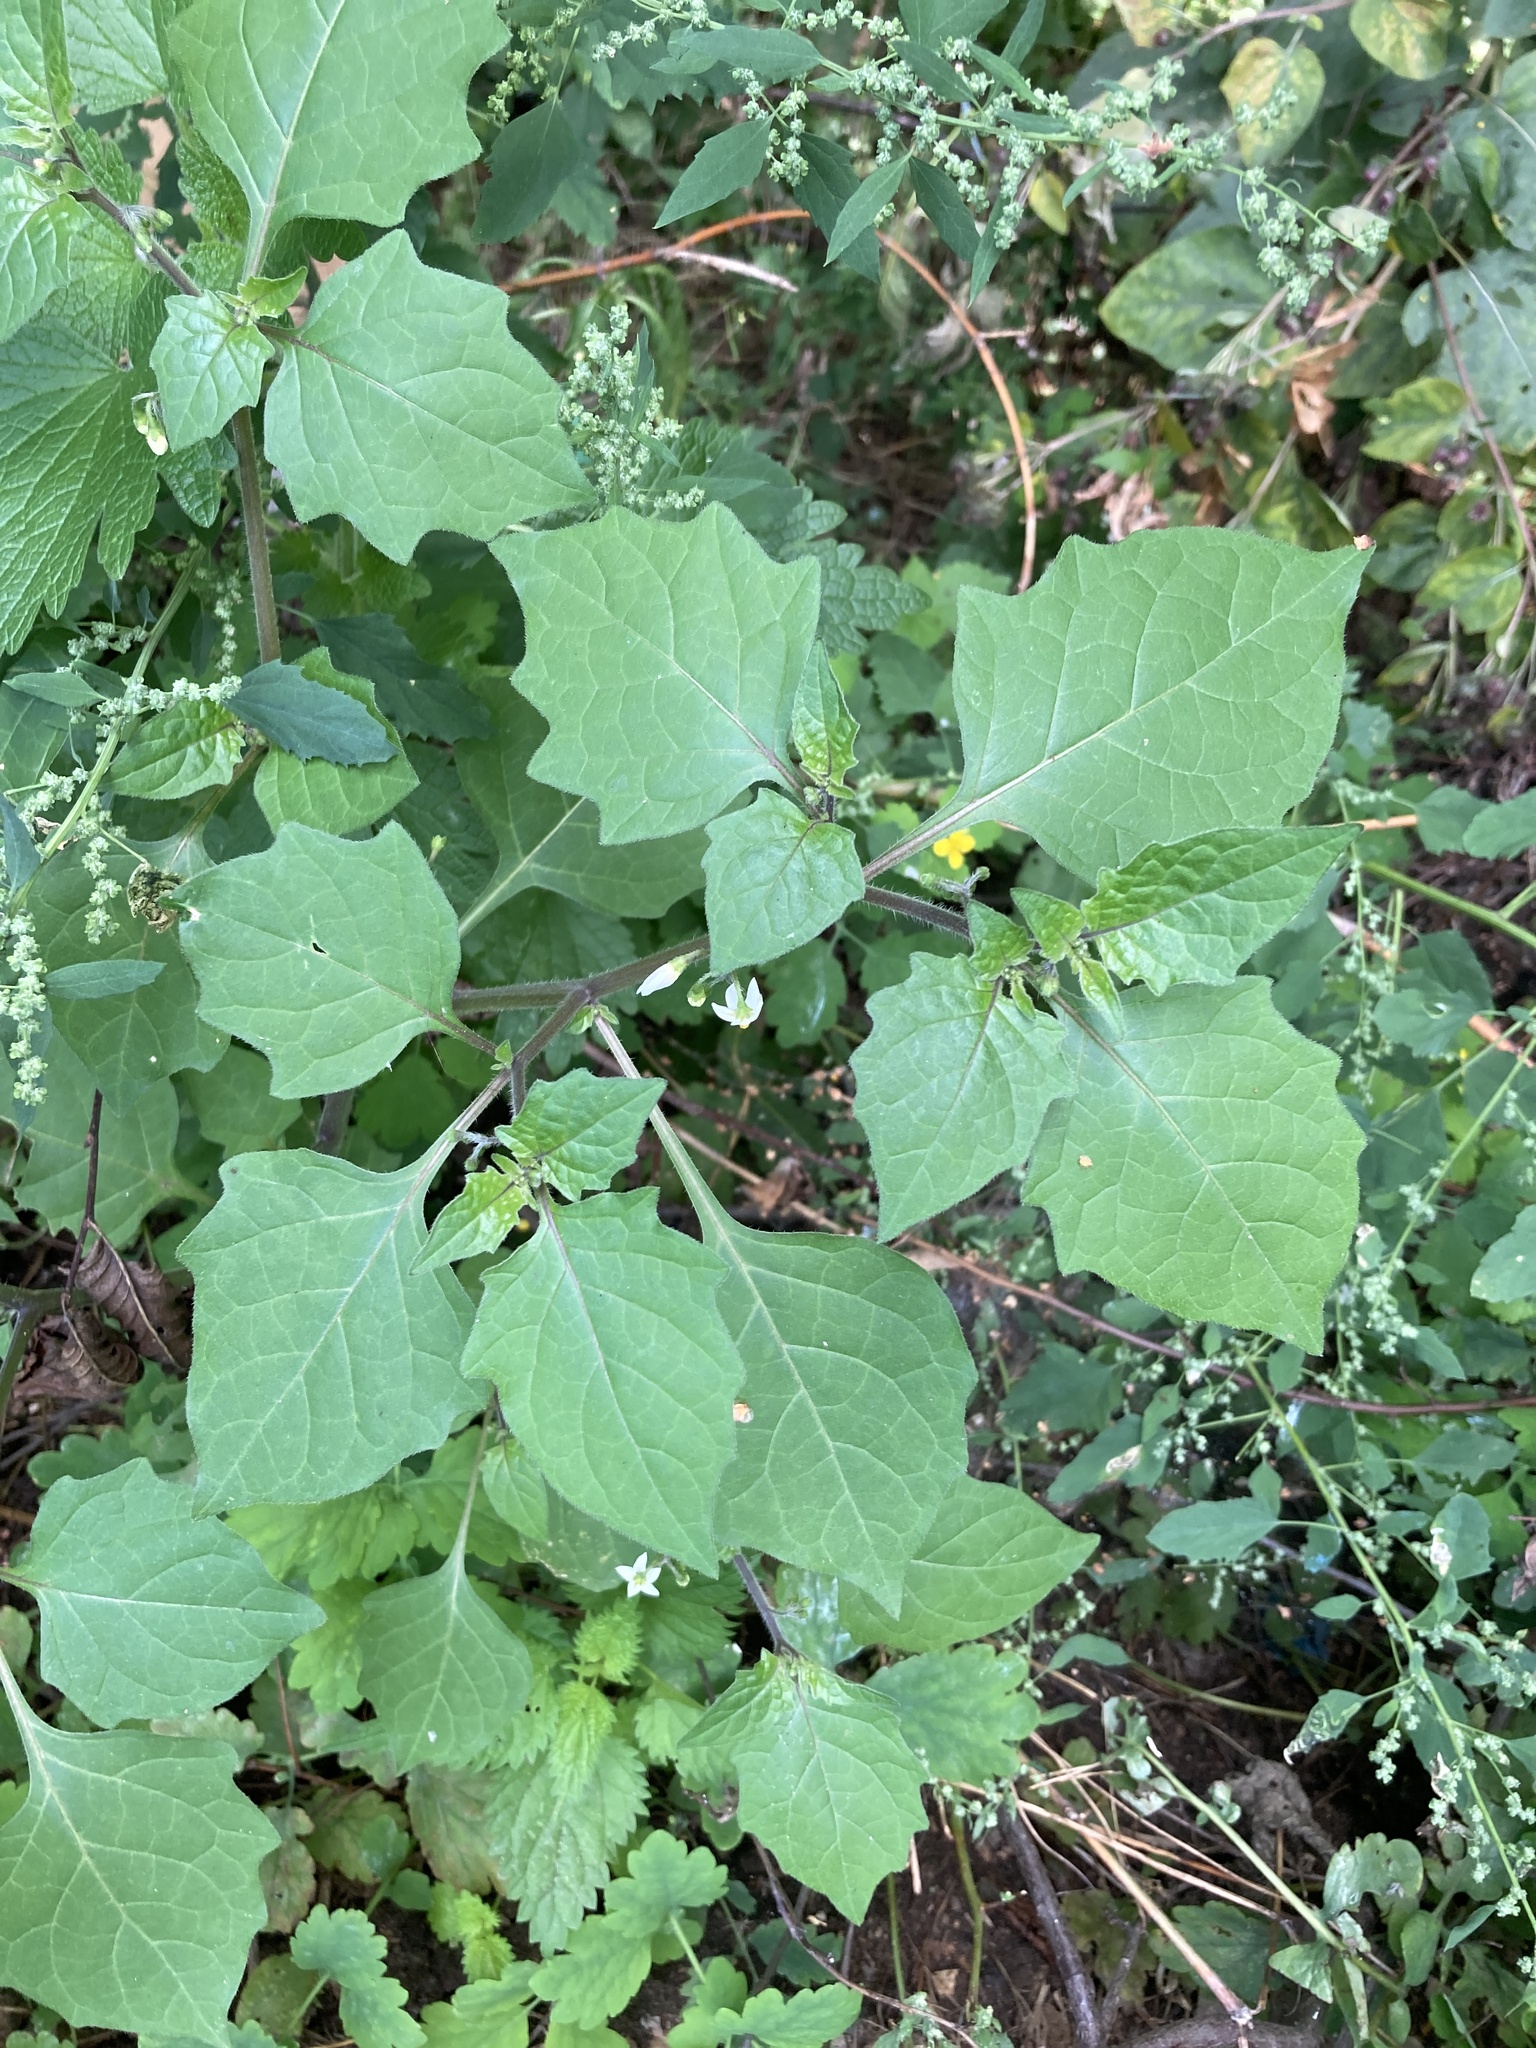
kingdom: Plantae
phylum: Tracheophyta
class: Magnoliopsida
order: Solanales
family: Solanaceae
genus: Solanum
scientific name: Solanum nigrum
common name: Black nightshade
